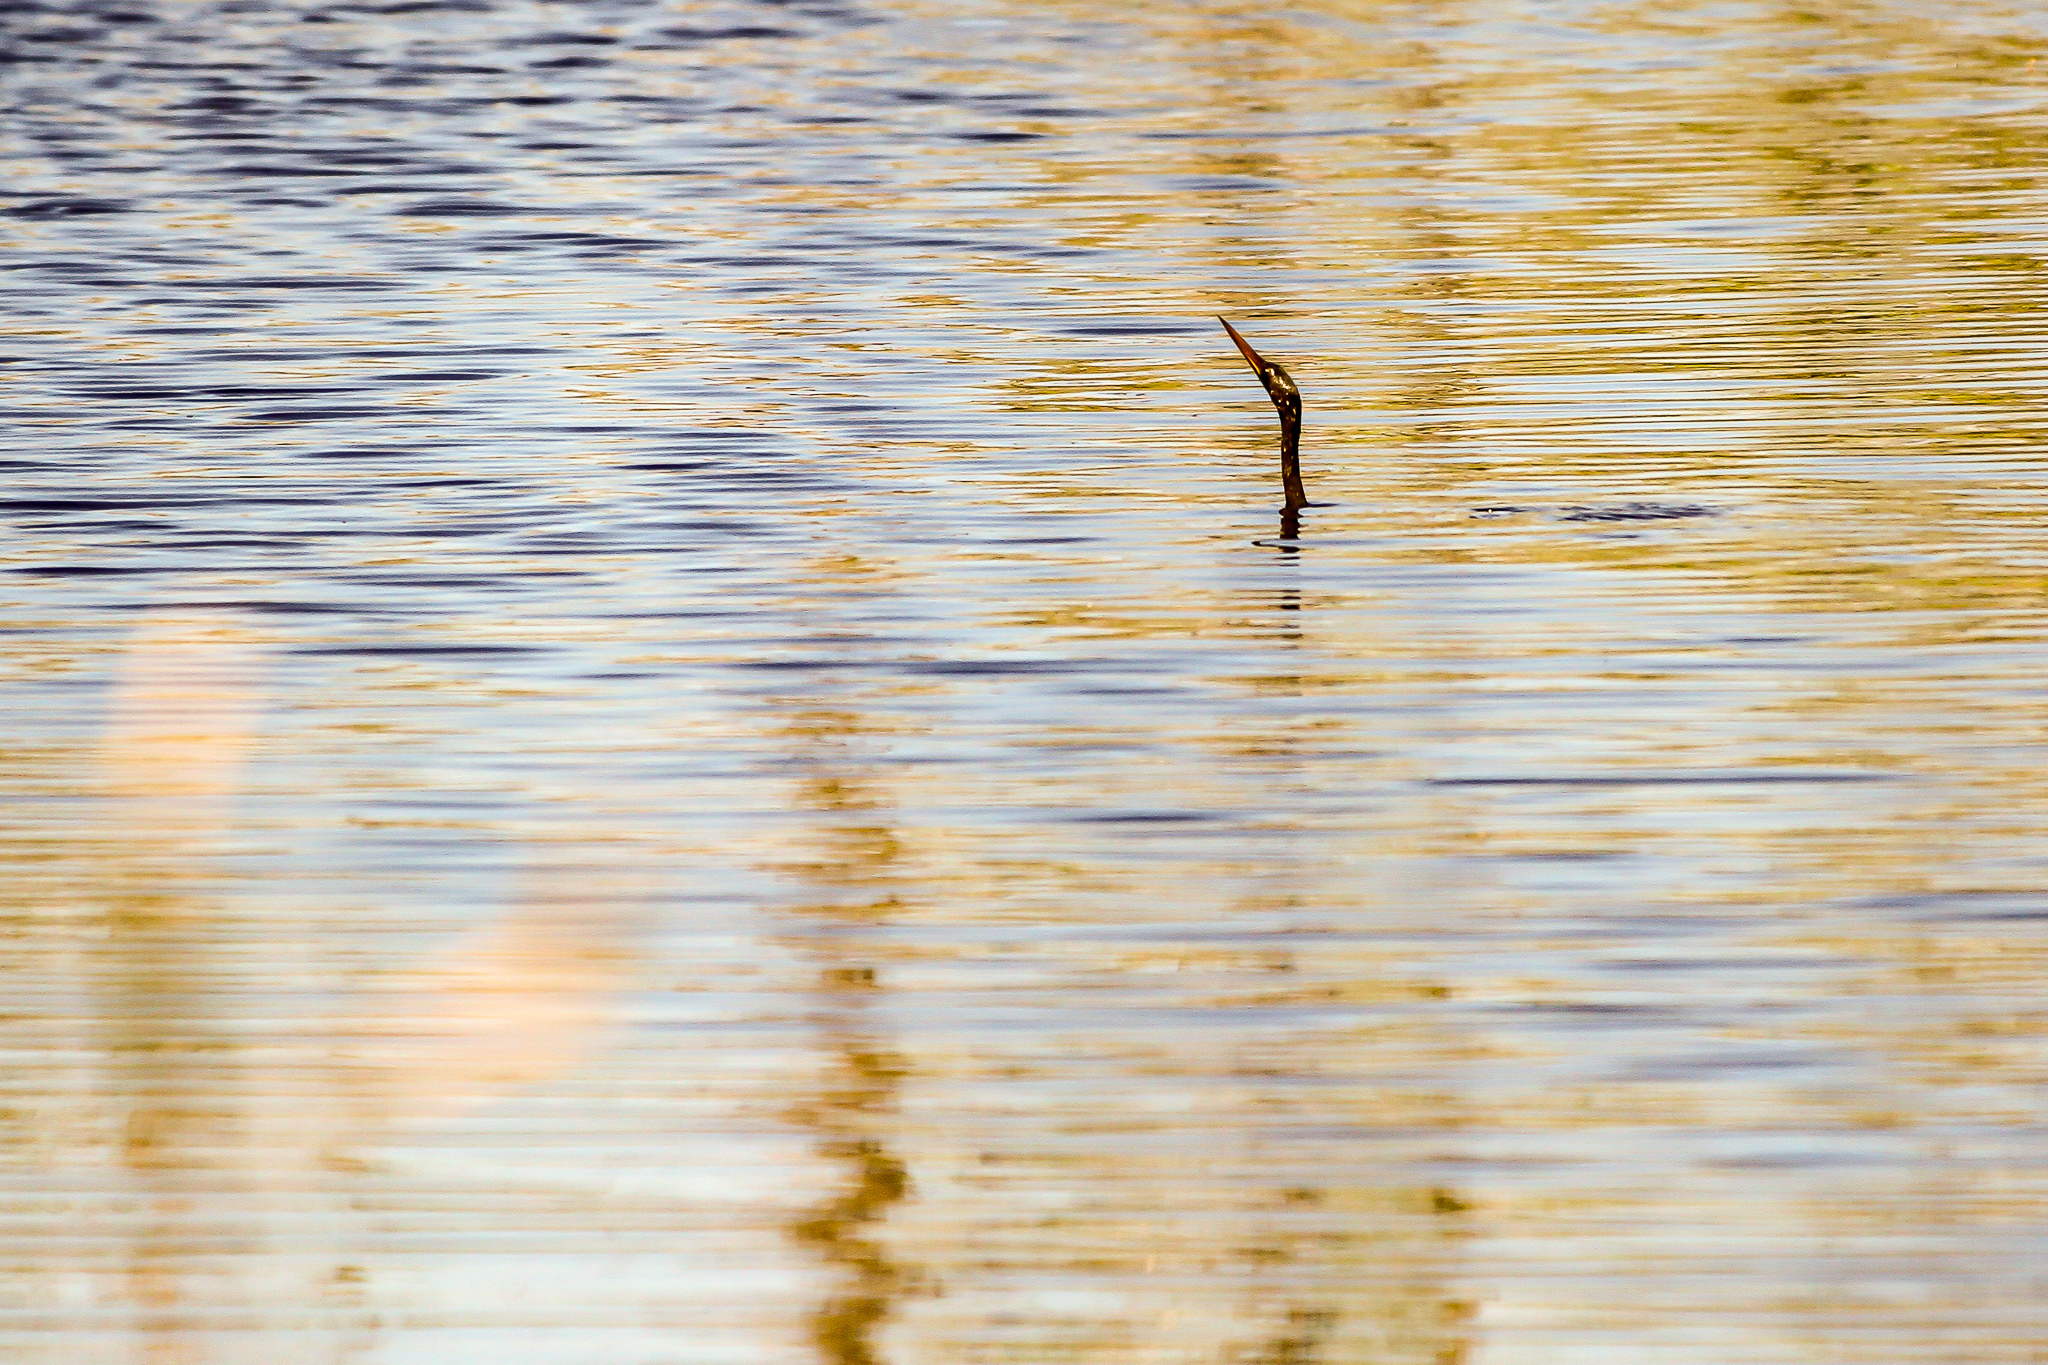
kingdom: Animalia
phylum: Chordata
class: Aves
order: Suliformes
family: Anhingidae
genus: Anhinga
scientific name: Anhinga anhinga
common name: Anhinga
